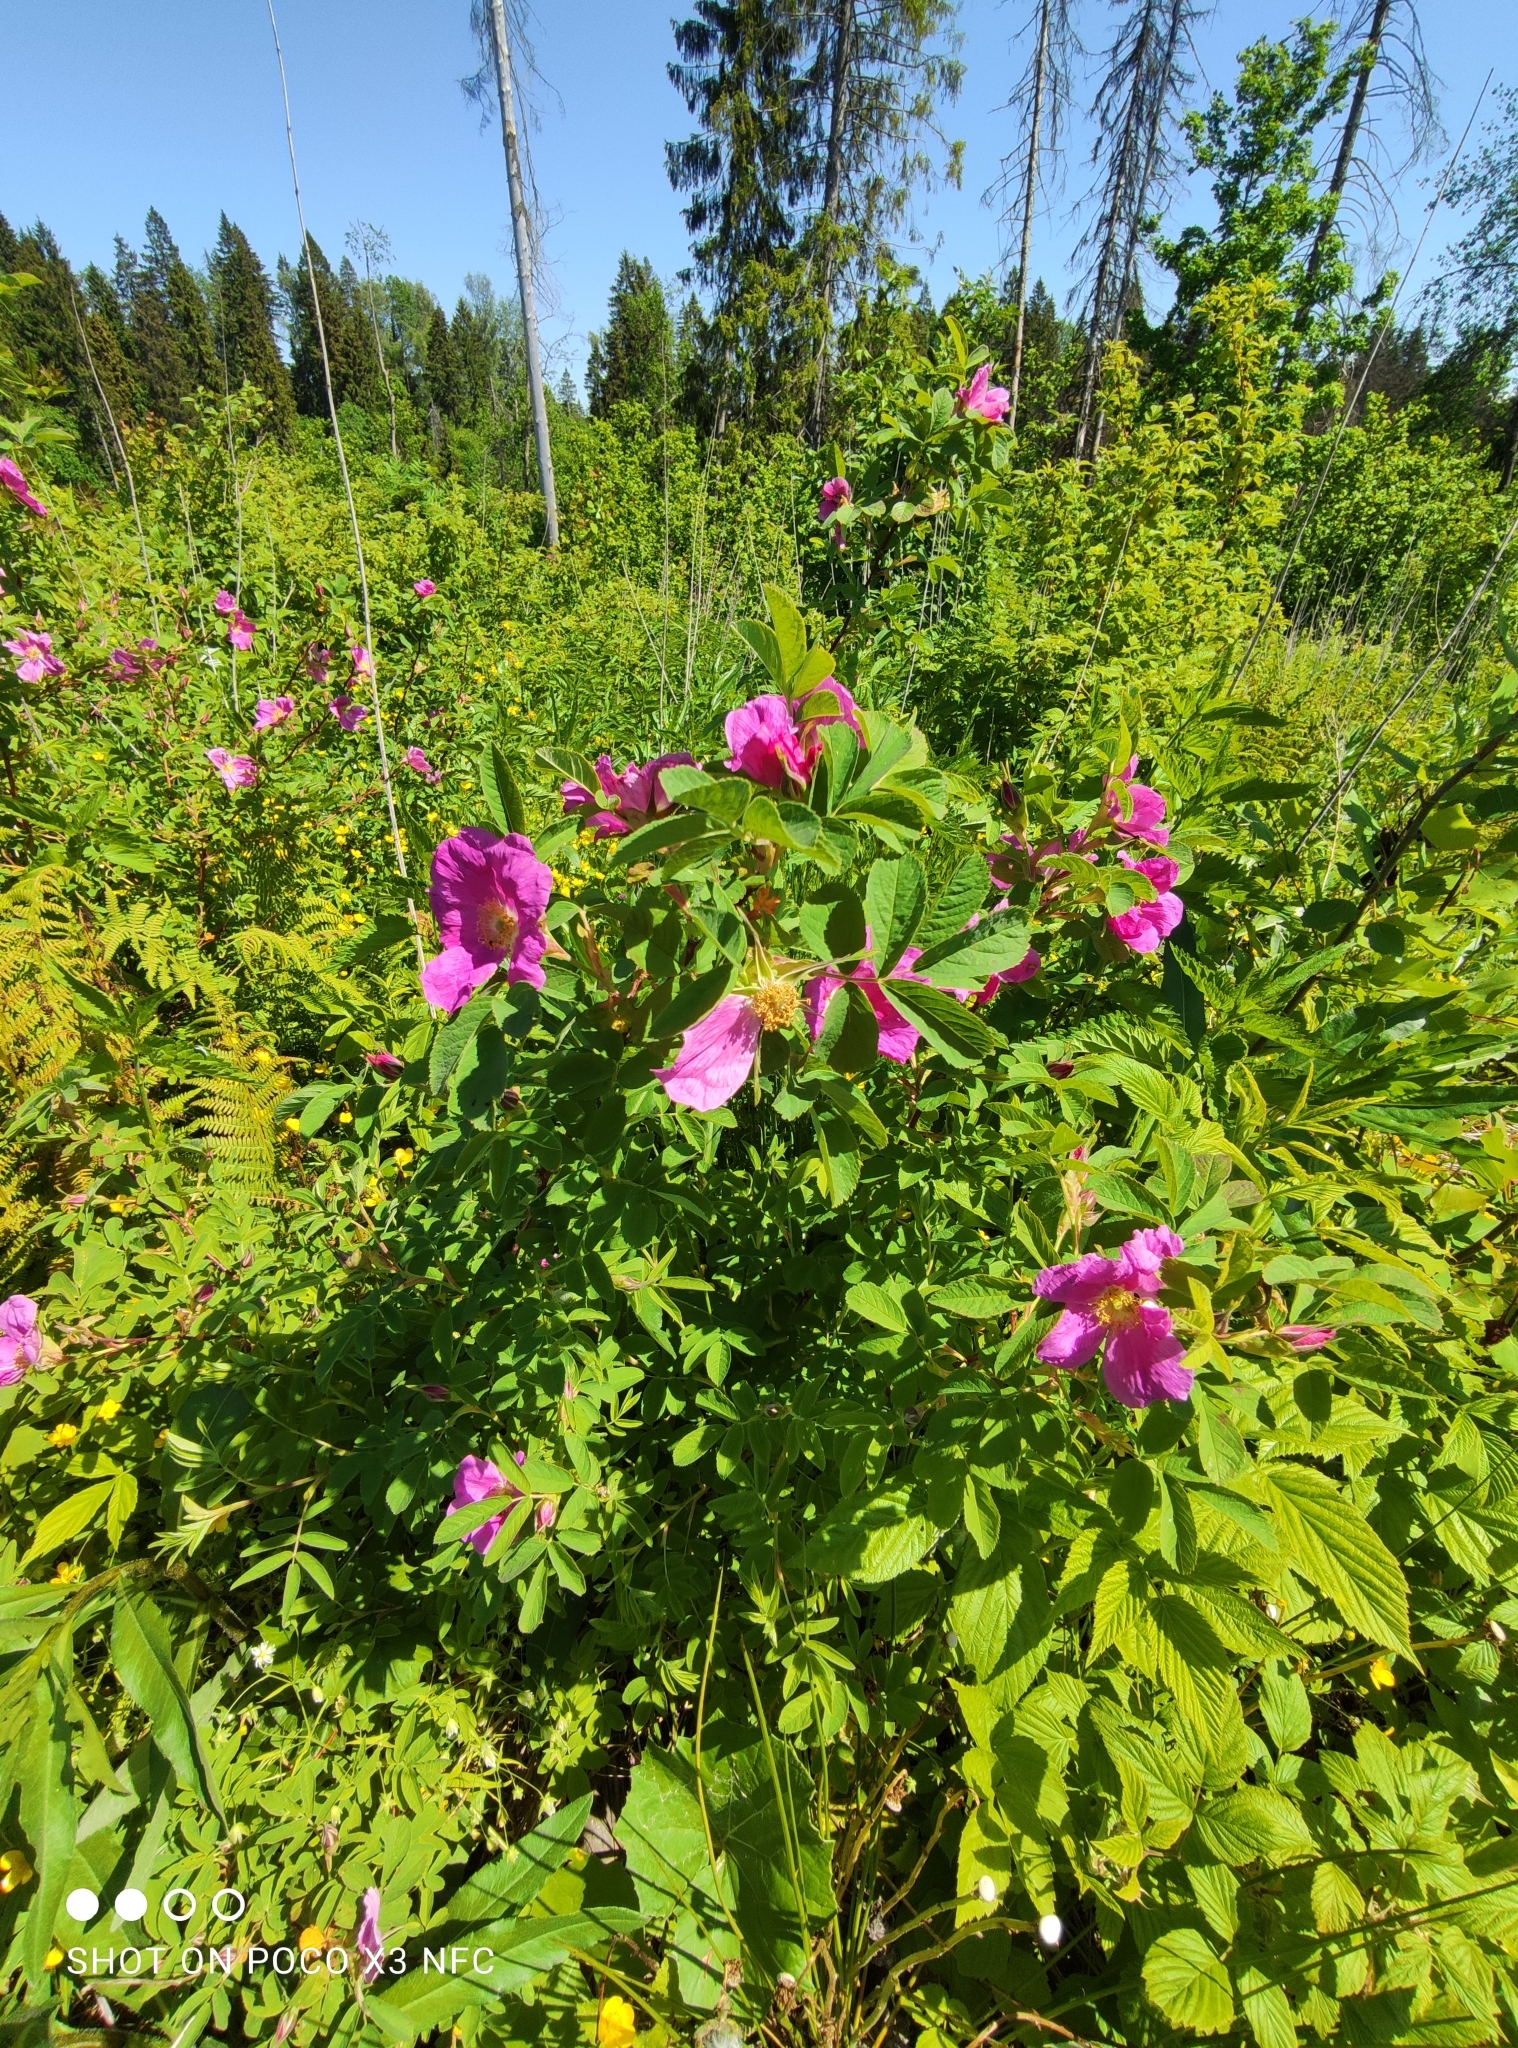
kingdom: Plantae
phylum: Tracheophyta
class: Magnoliopsida
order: Rosales
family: Rosaceae
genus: Rosa
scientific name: Rosa majalis
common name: Cinnamon rose
